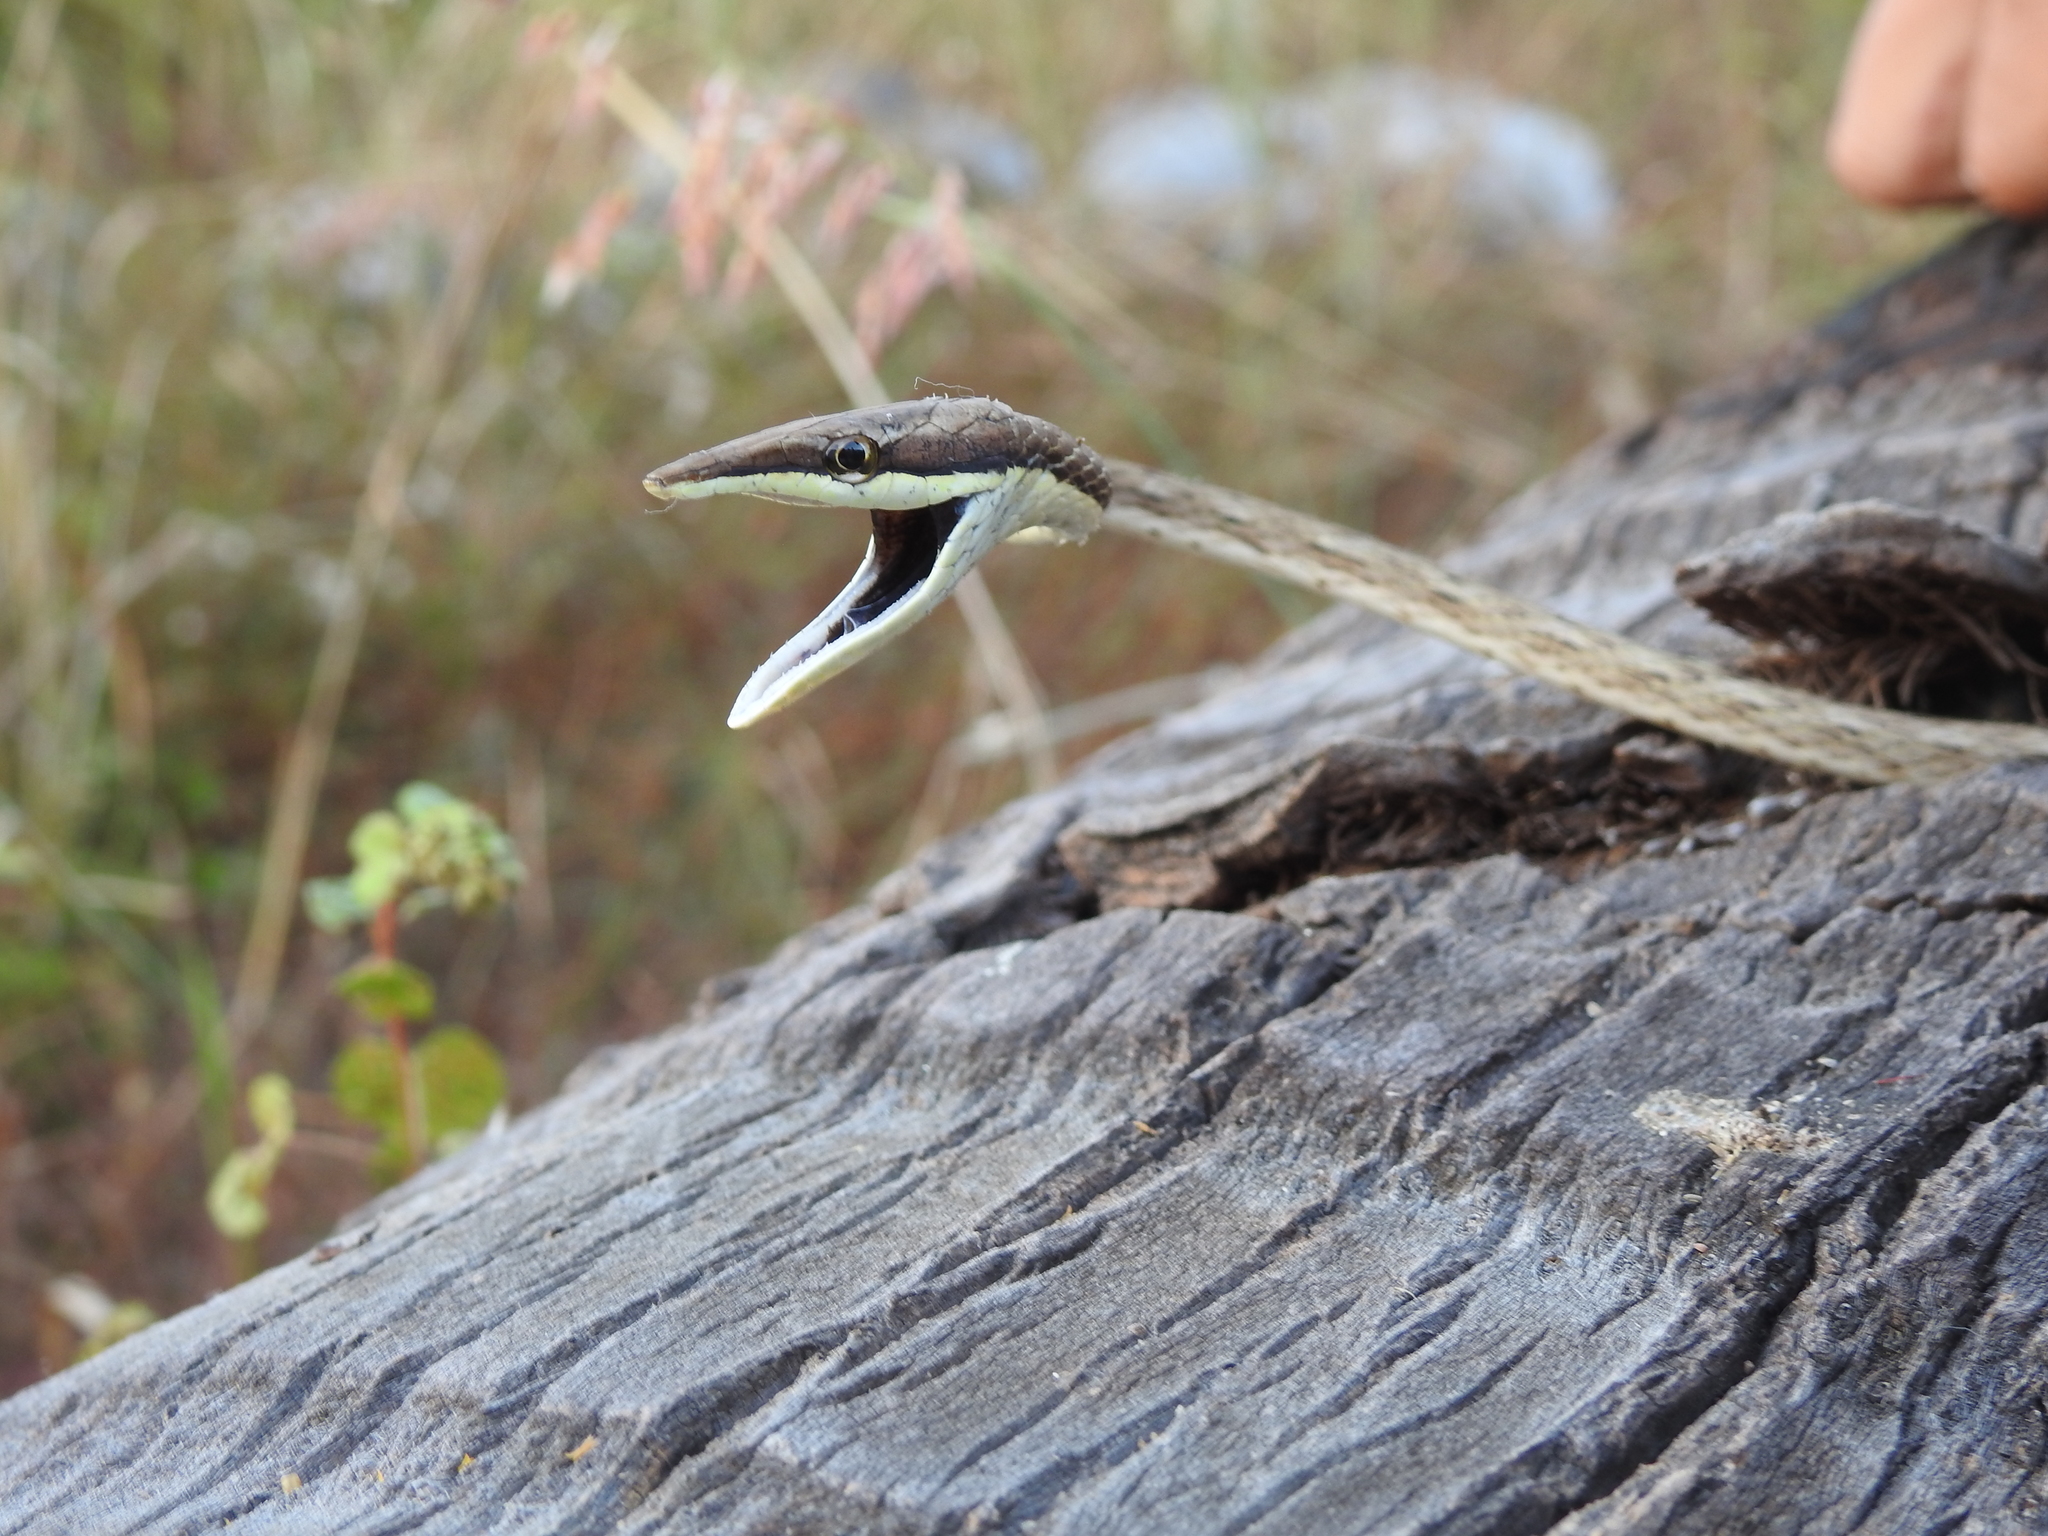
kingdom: Animalia
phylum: Chordata
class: Squamata
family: Colubridae
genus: Oxybelis
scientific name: Oxybelis microphthalmus
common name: Thrornscrub vine snake
